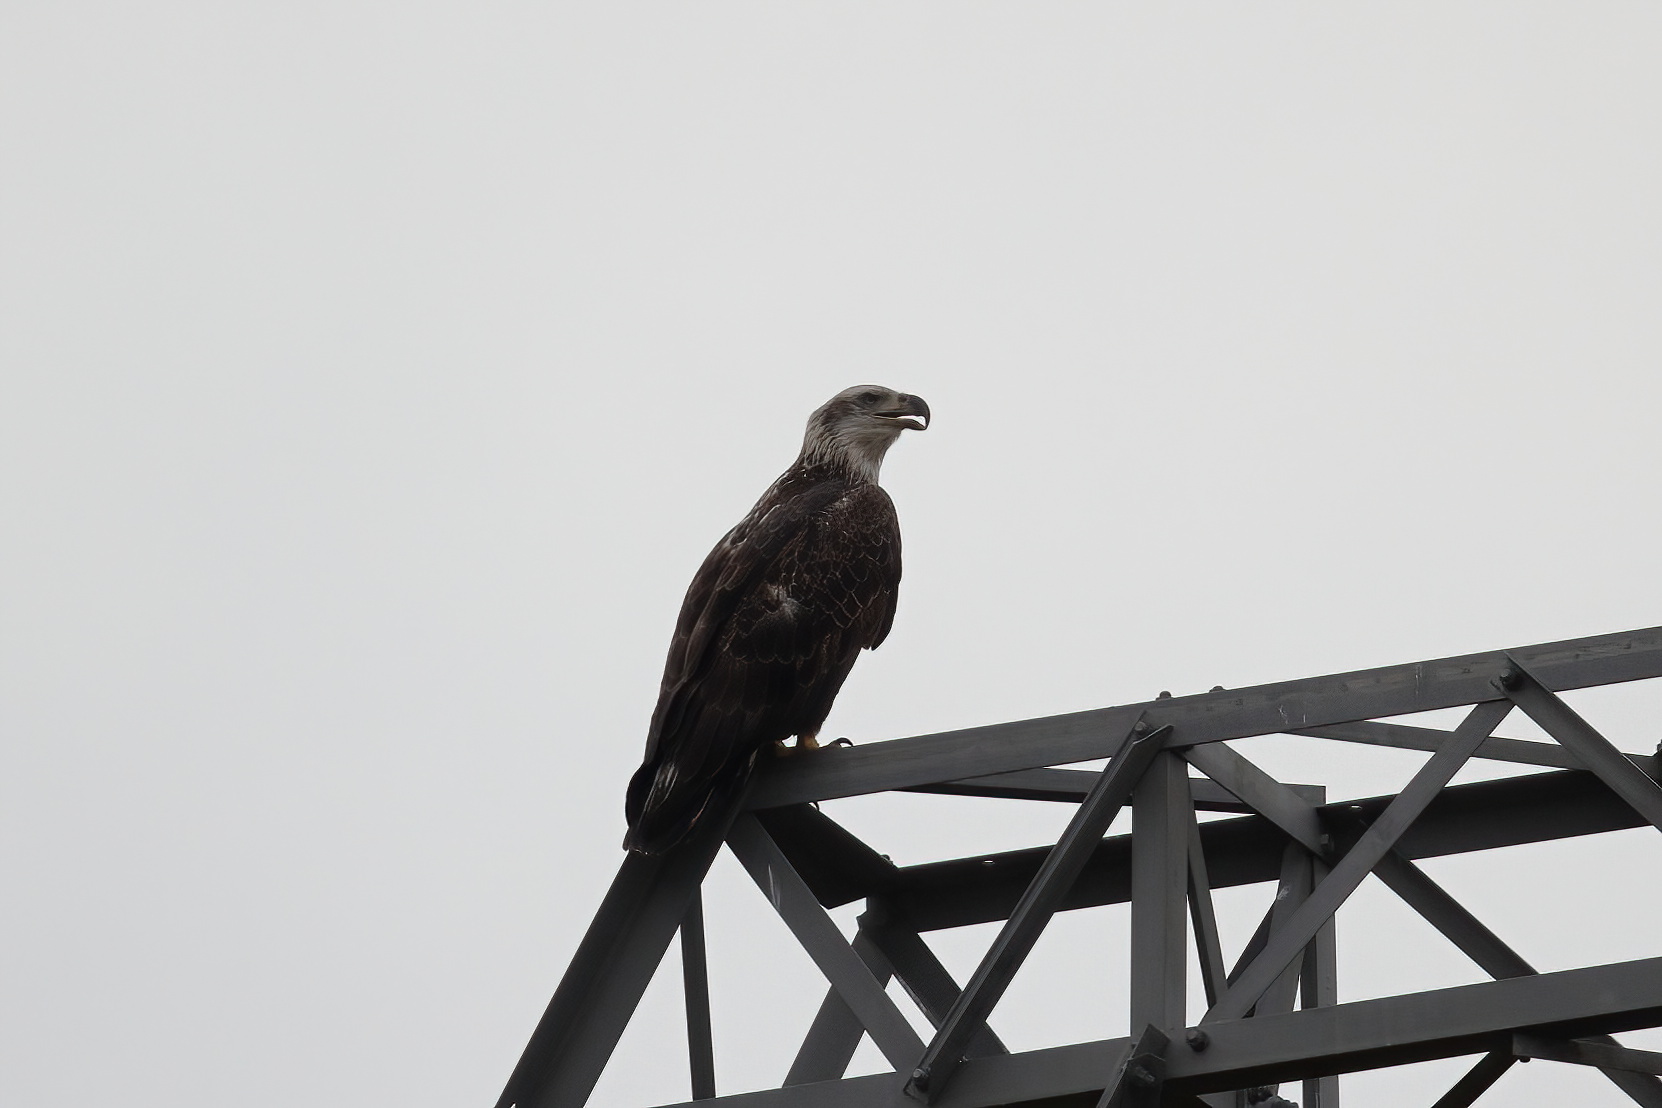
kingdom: Animalia
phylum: Chordata
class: Aves
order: Accipitriformes
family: Accipitridae
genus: Haliaeetus
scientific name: Haliaeetus leucocephalus
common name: Bald eagle
